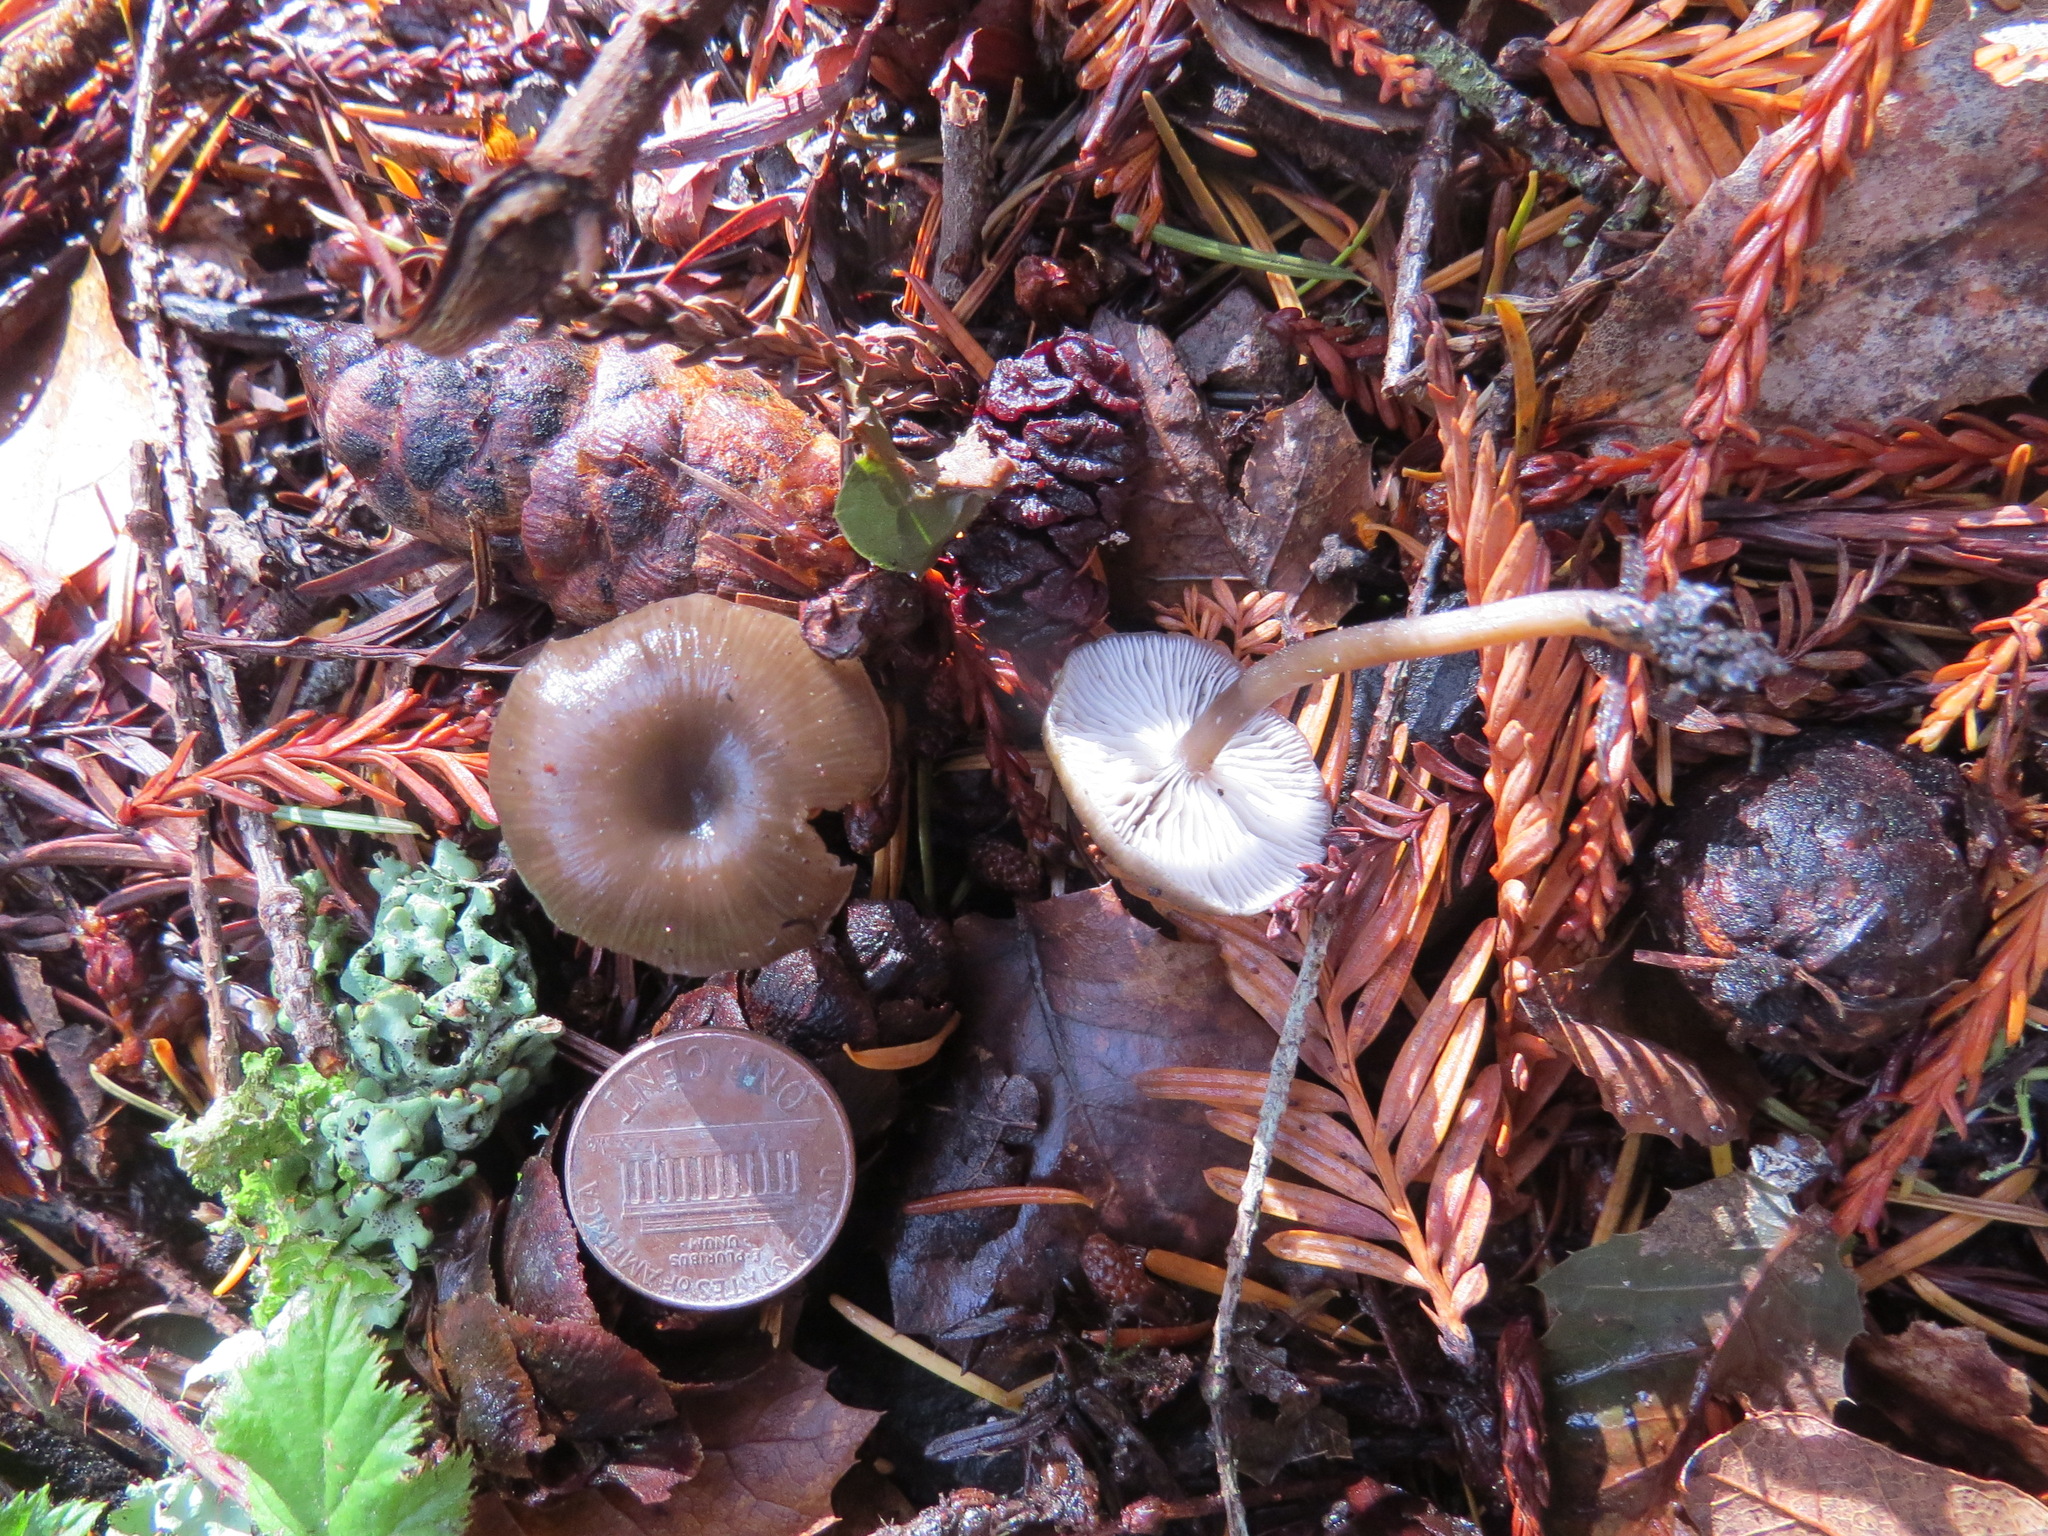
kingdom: Fungi
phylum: Basidiomycota
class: Agaricomycetes
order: Agaricales
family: Tricholomataceae
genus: Myxomphalia
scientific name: Myxomphalia maura
